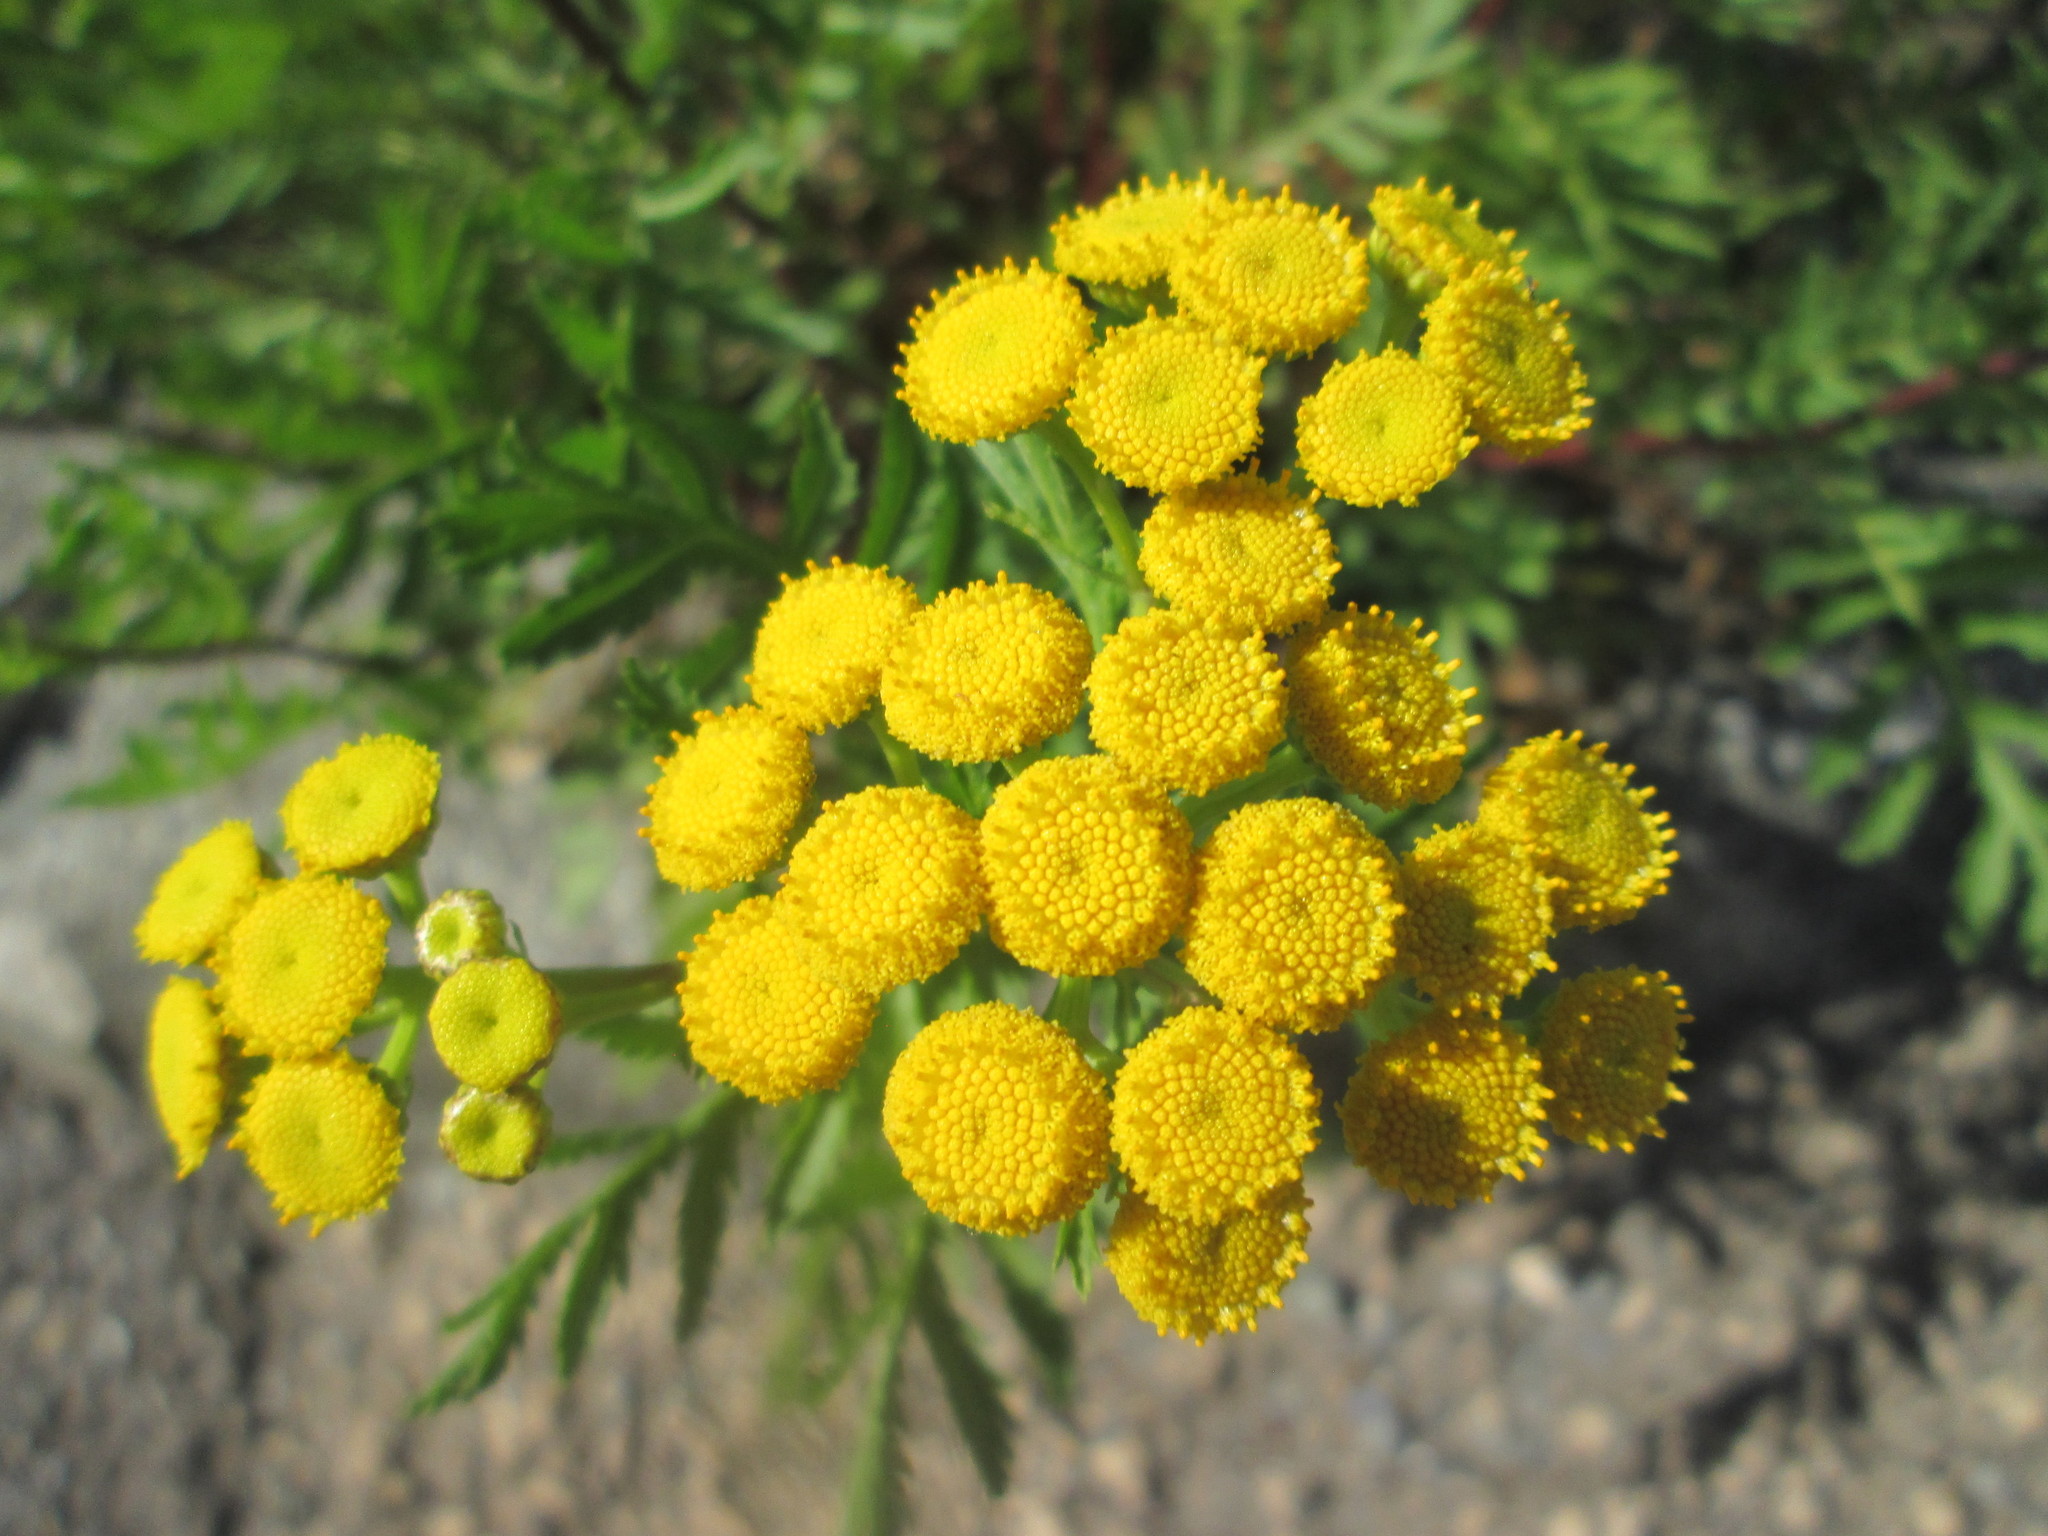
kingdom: Plantae
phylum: Tracheophyta
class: Magnoliopsida
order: Asterales
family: Asteraceae
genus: Tanacetum
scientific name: Tanacetum vulgare
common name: Common tansy
